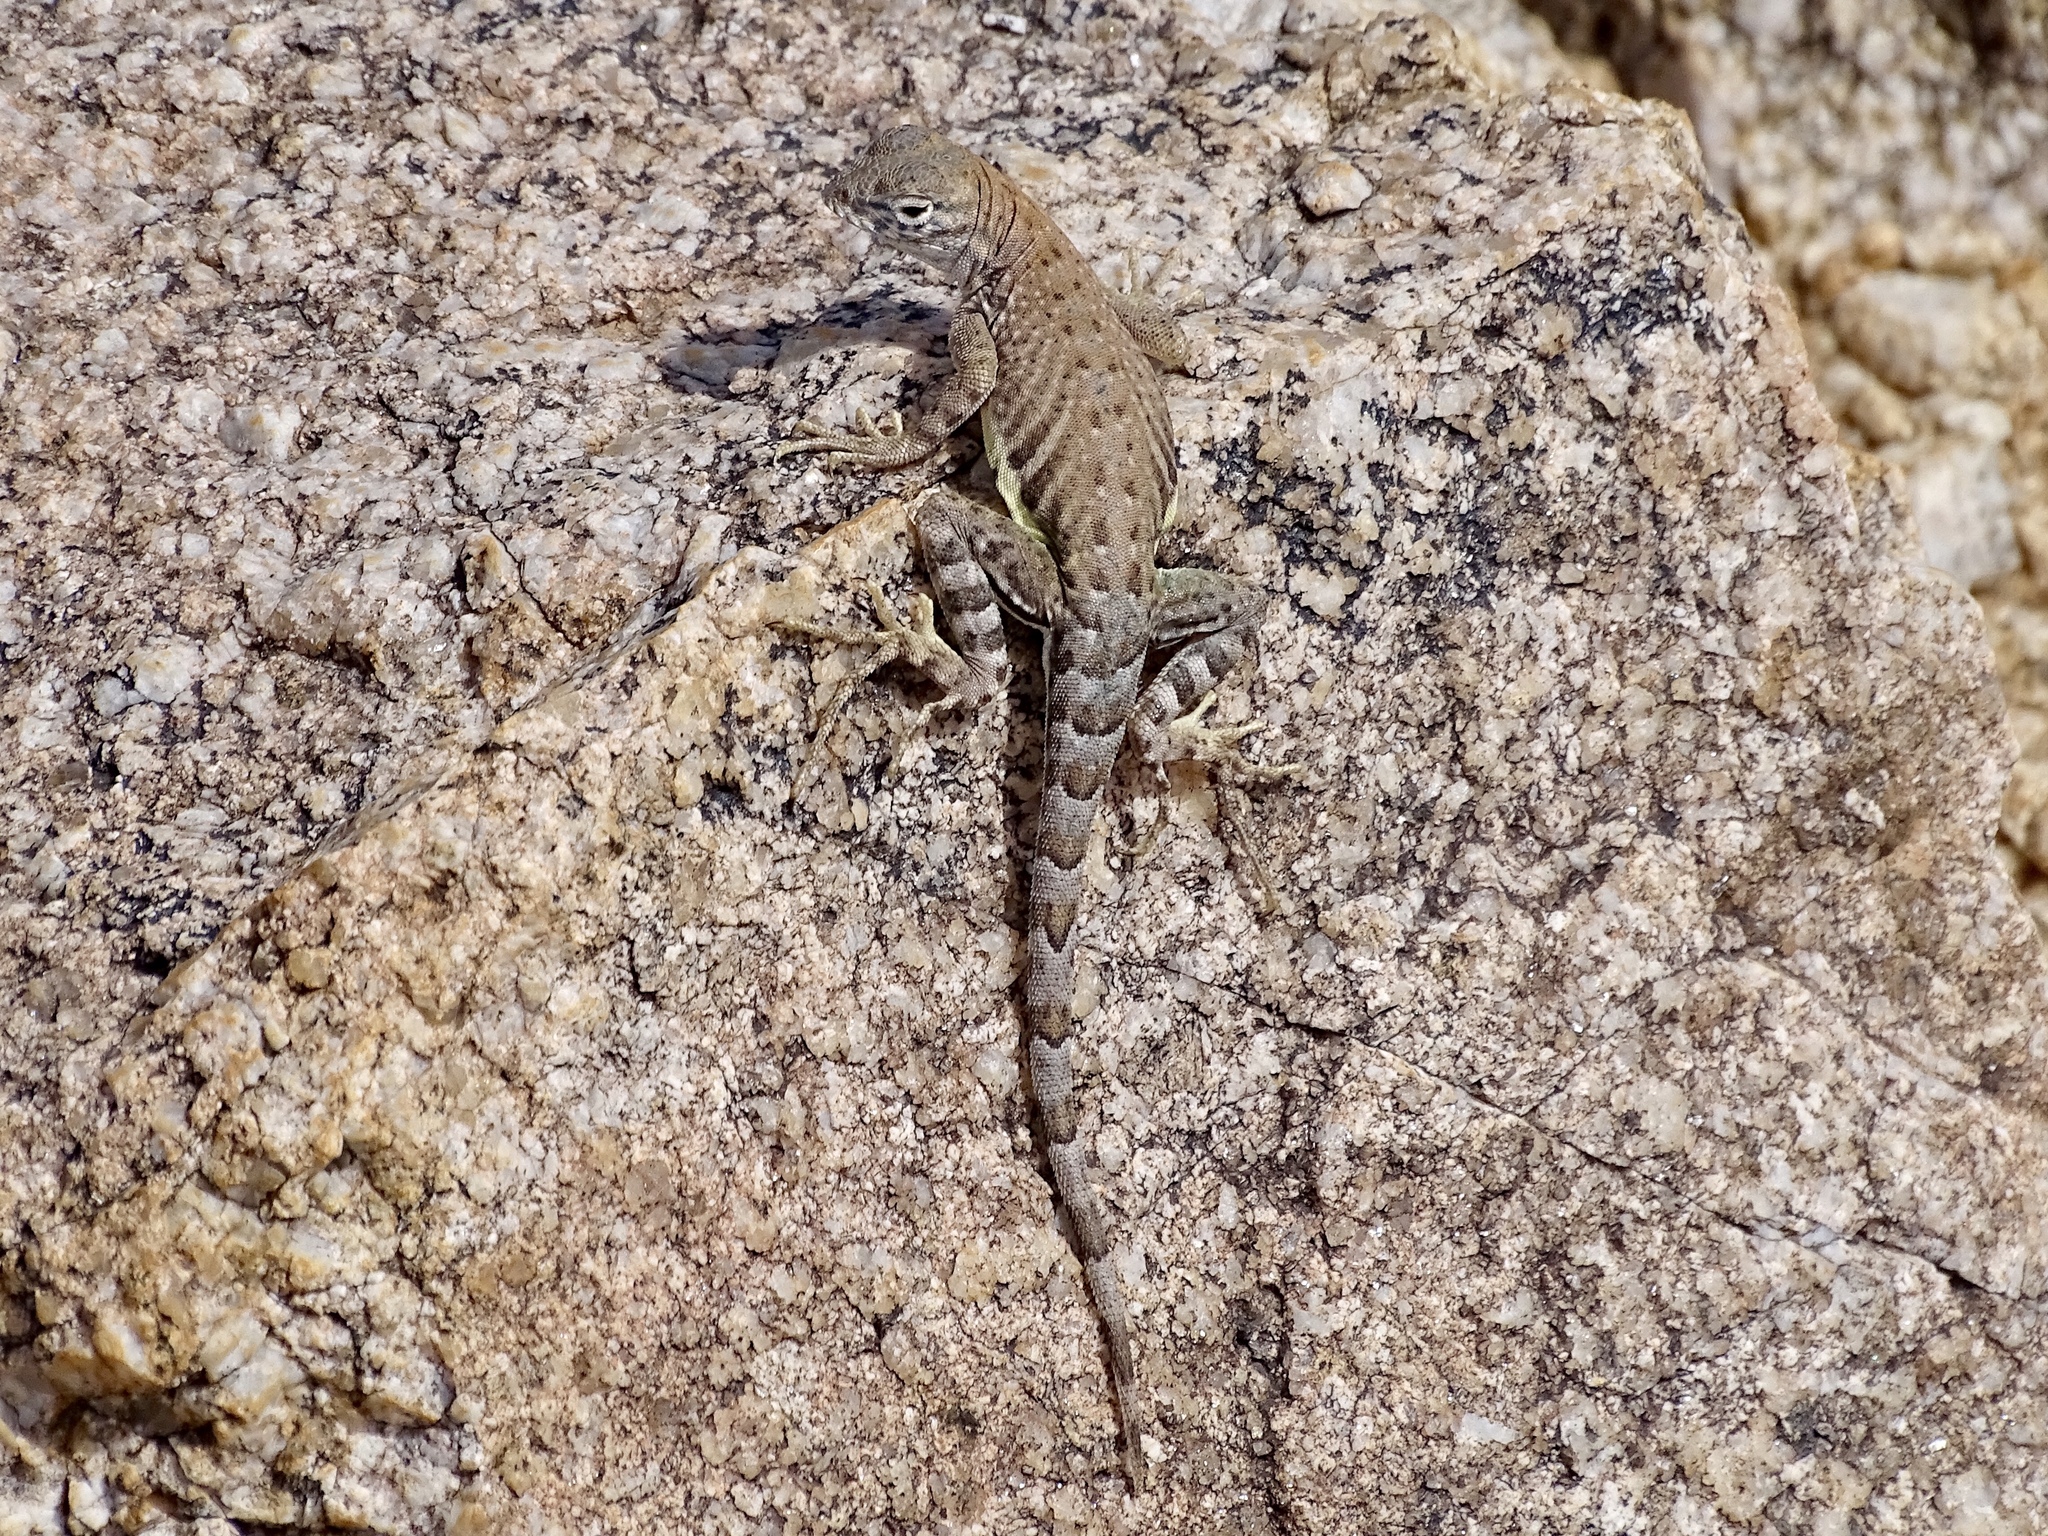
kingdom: Animalia
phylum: Chordata
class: Squamata
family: Phrynosomatidae
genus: Cophosaurus
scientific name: Cophosaurus texanus
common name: Greater earless lizard
